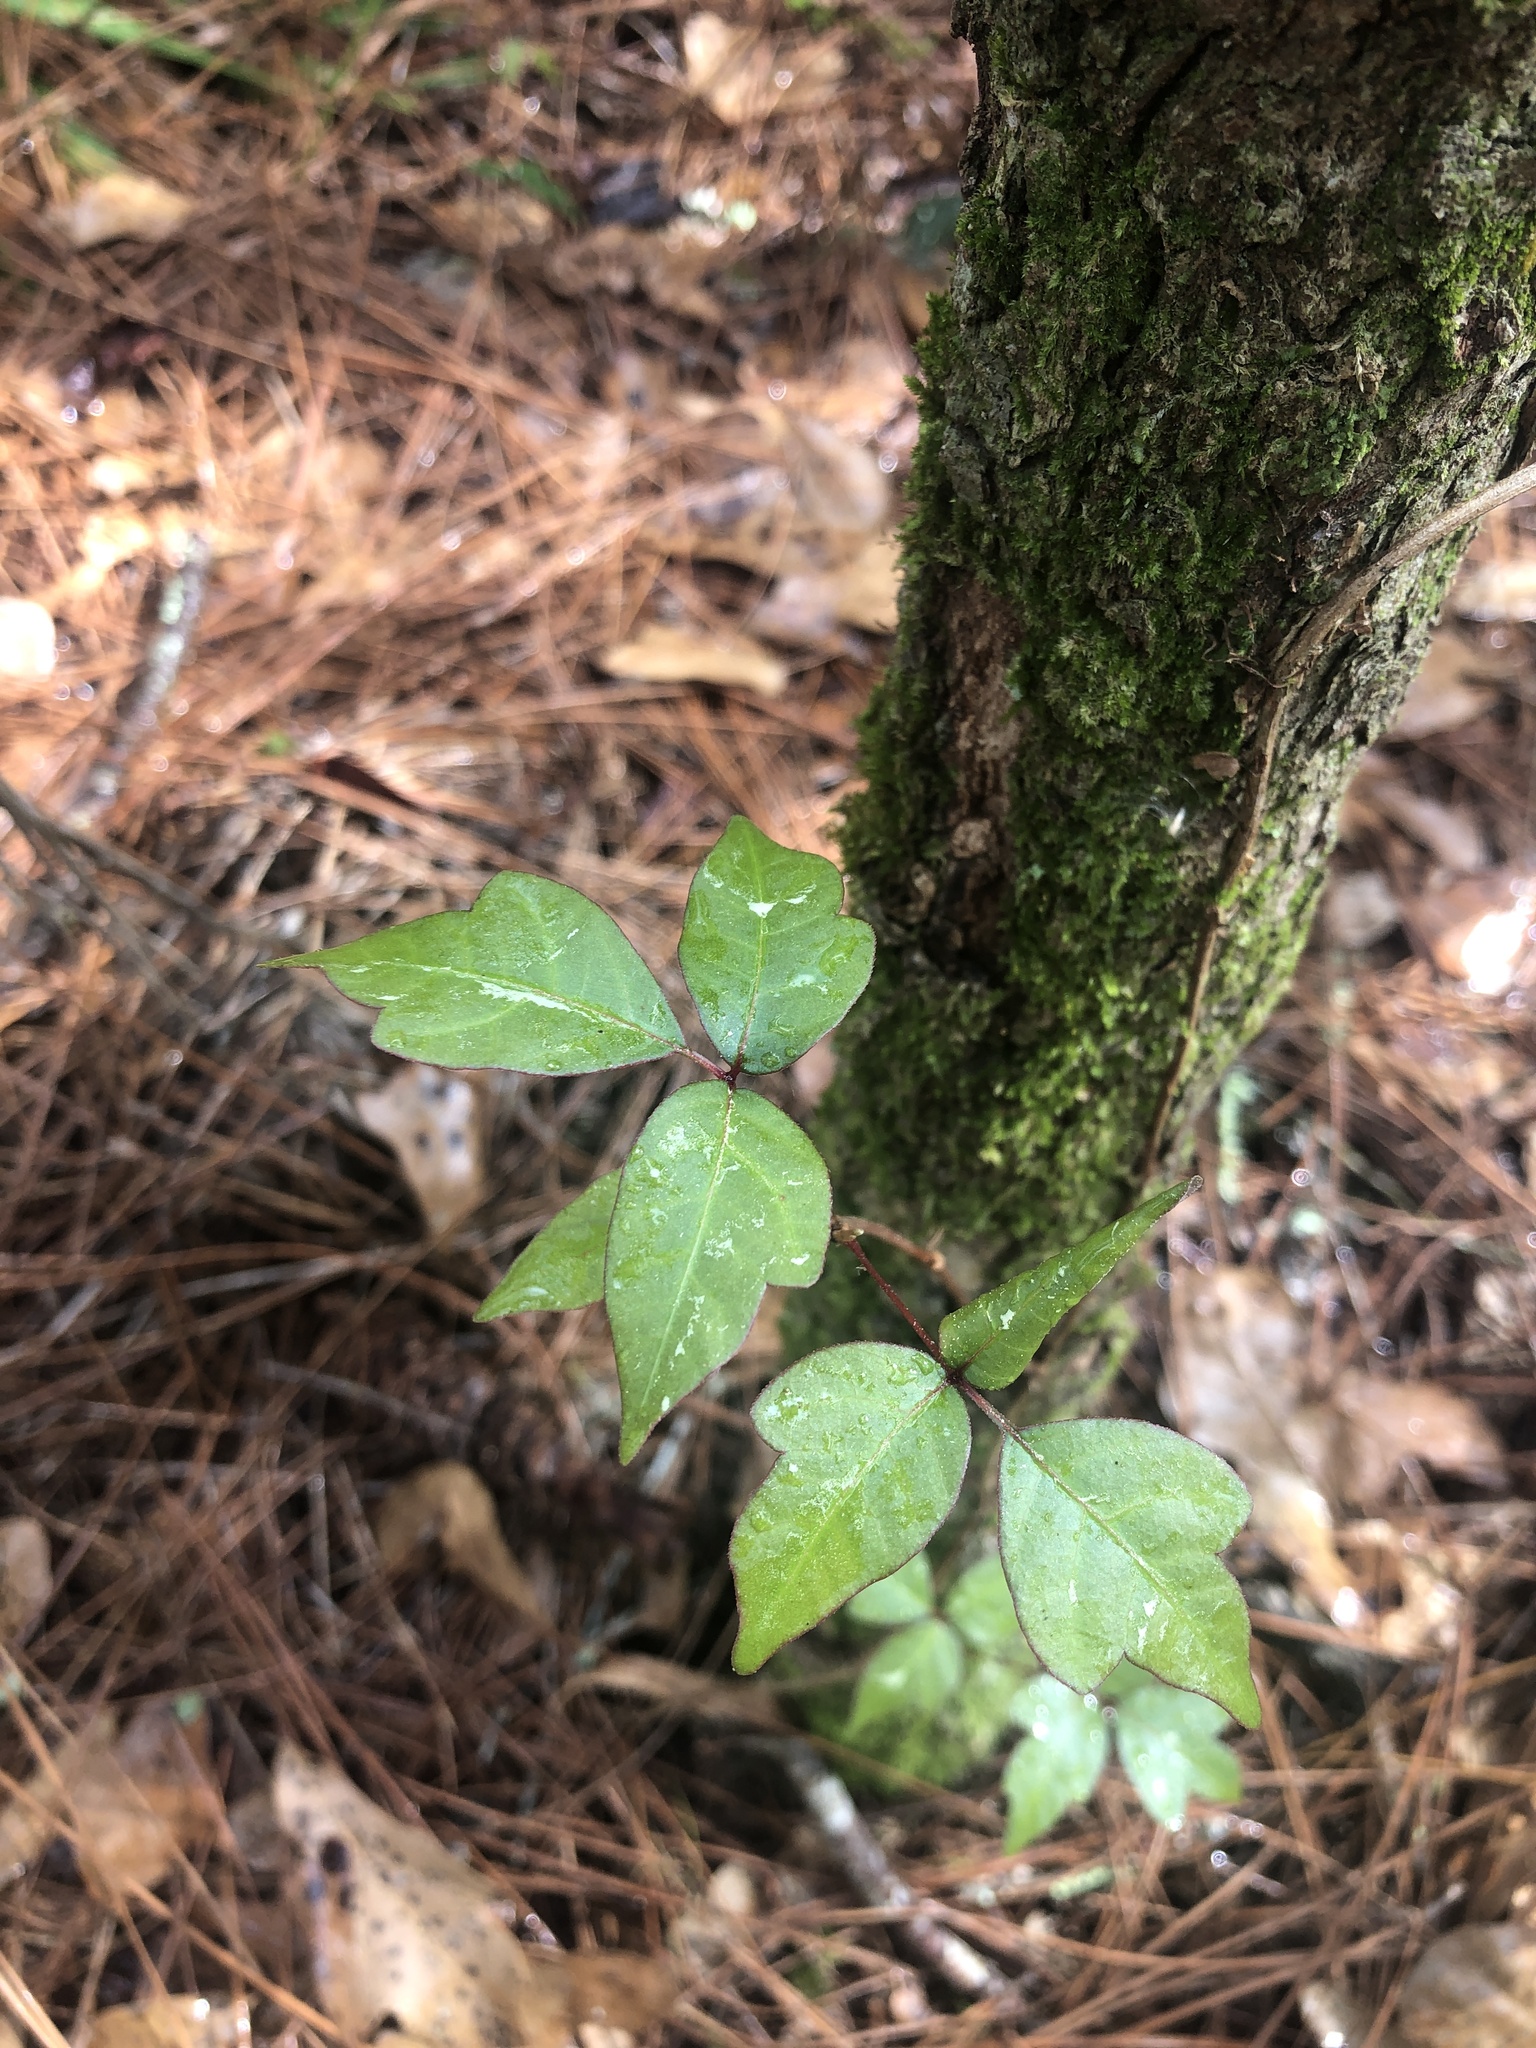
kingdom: Plantae
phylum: Tracheophyta
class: Magnoliopsida
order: Sapindales
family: Anacardiaceae
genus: Toxicodendron
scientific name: Toxicodendron radicans
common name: Poison ivy
